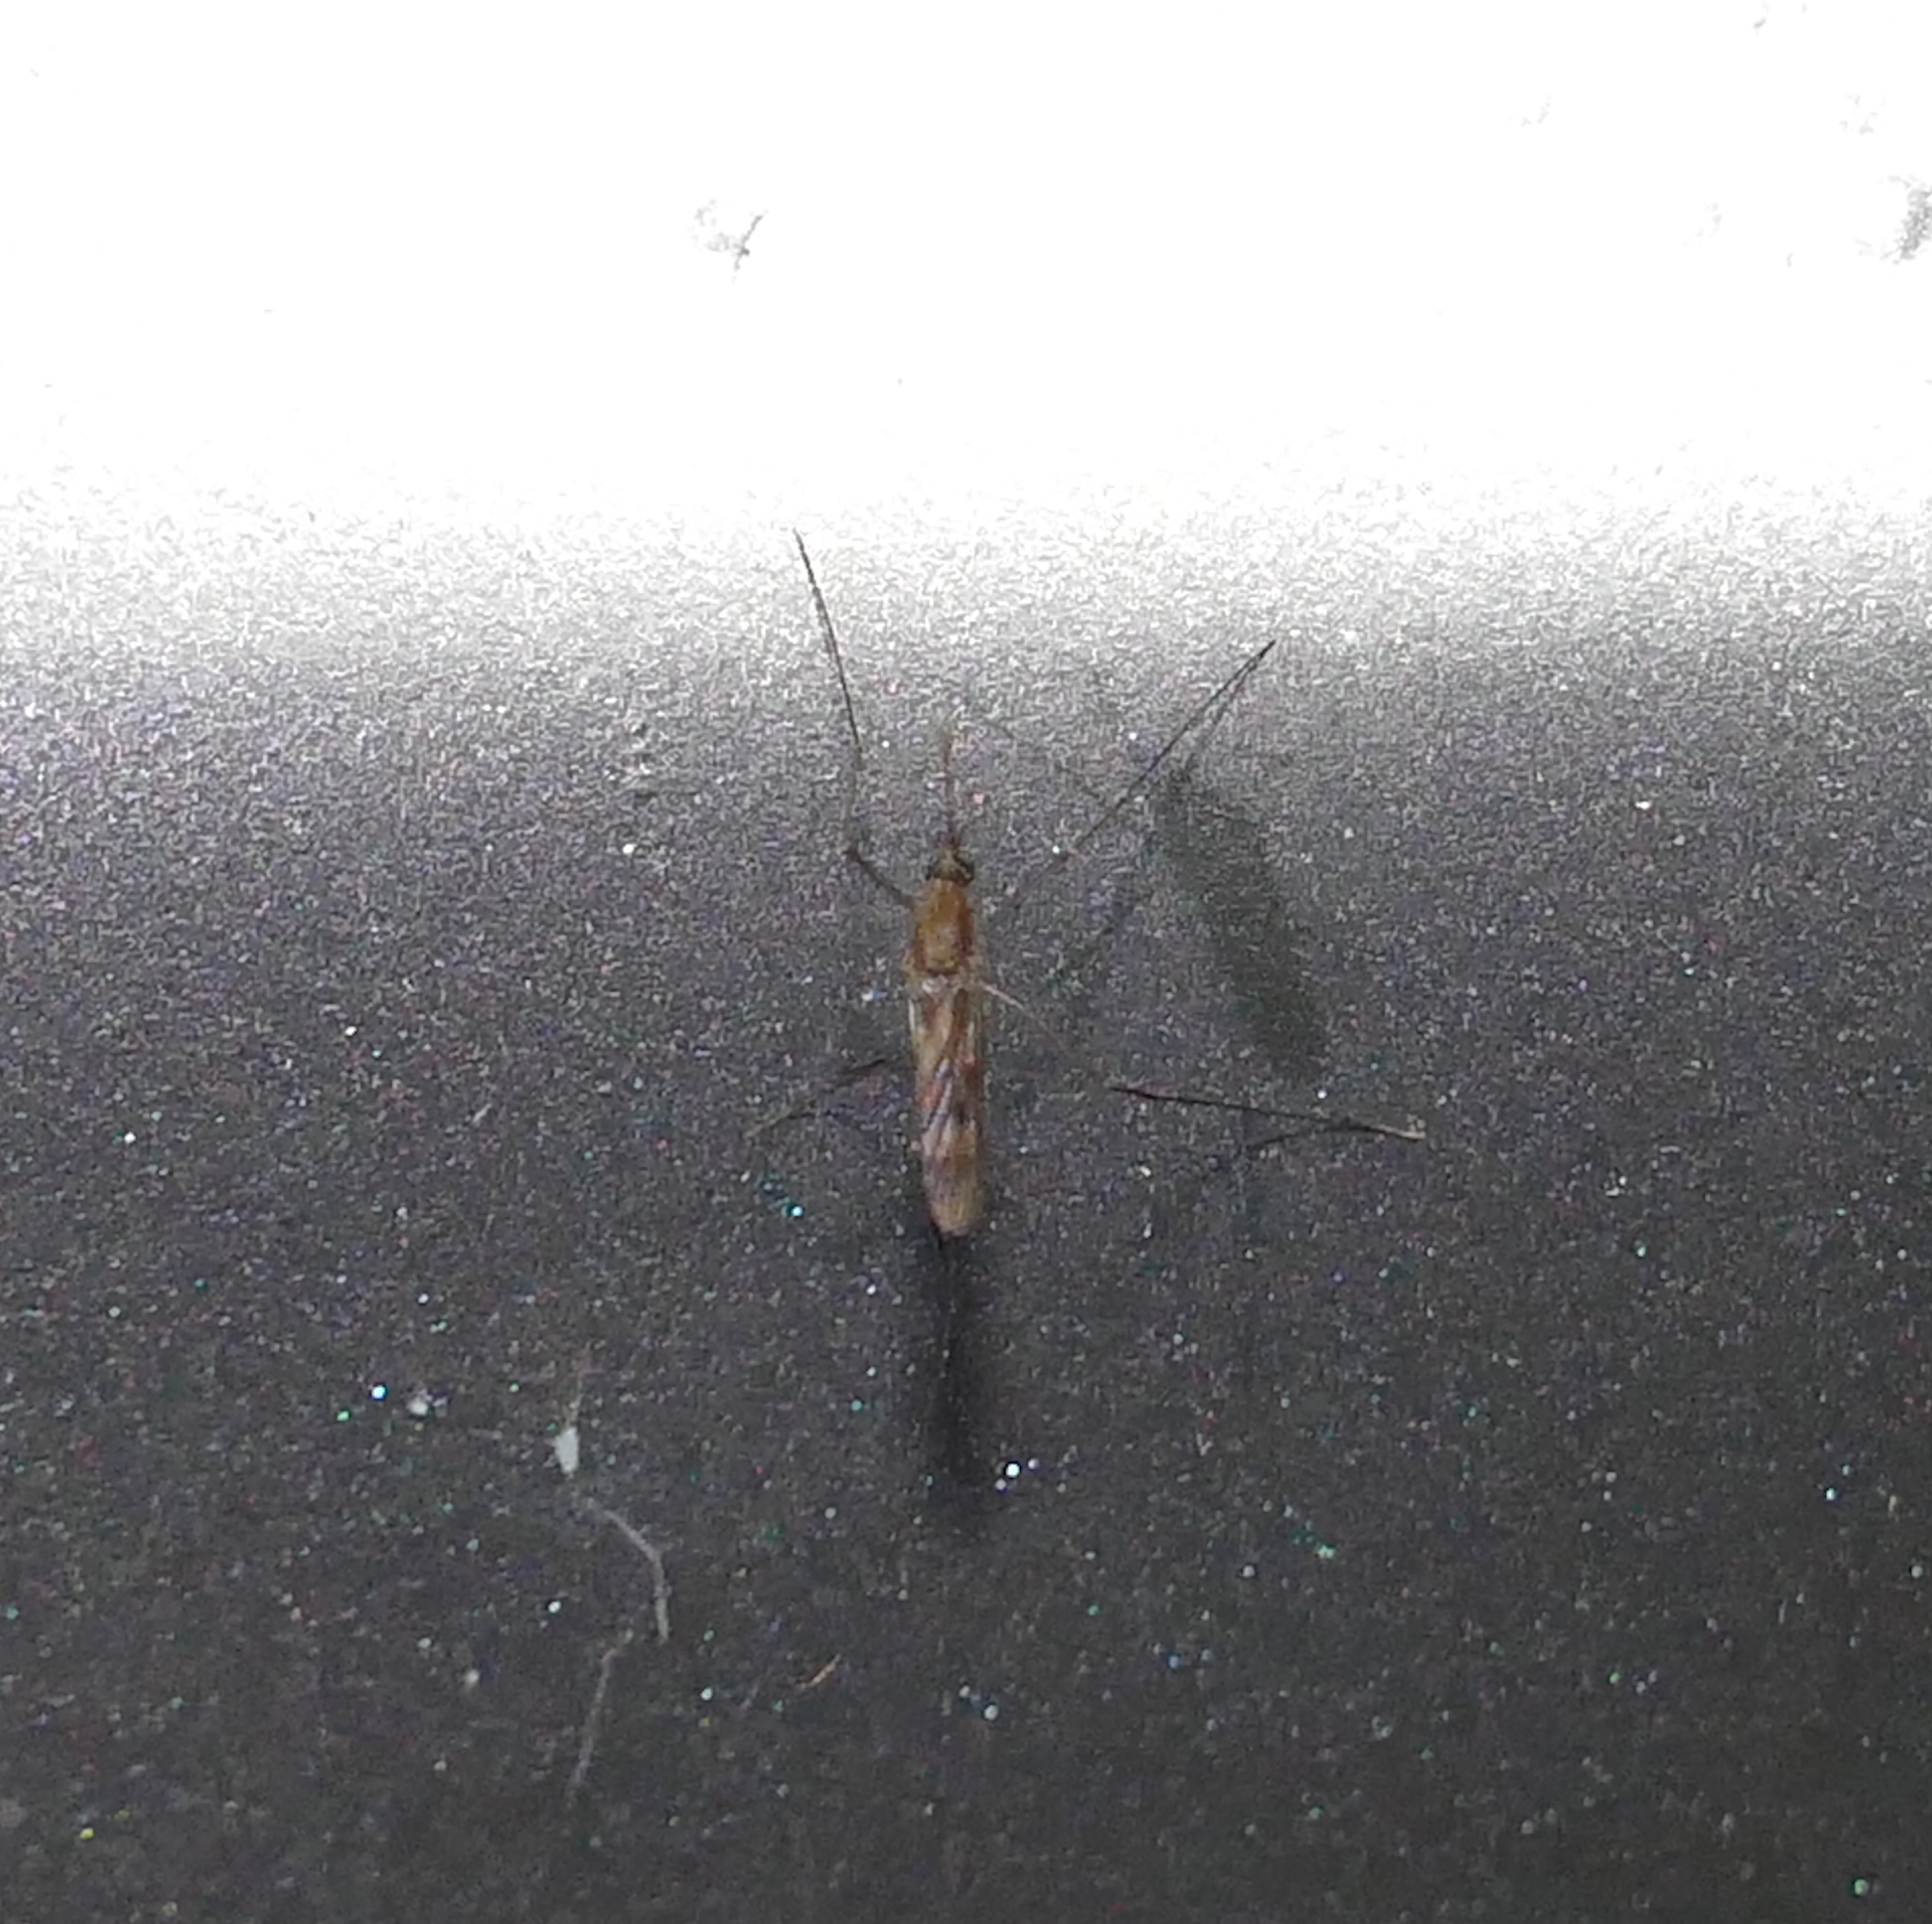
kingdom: Animalia
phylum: Arthropoda
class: Insecta
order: Diptera
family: Culicidae
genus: Anopheles
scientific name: Anopheles
